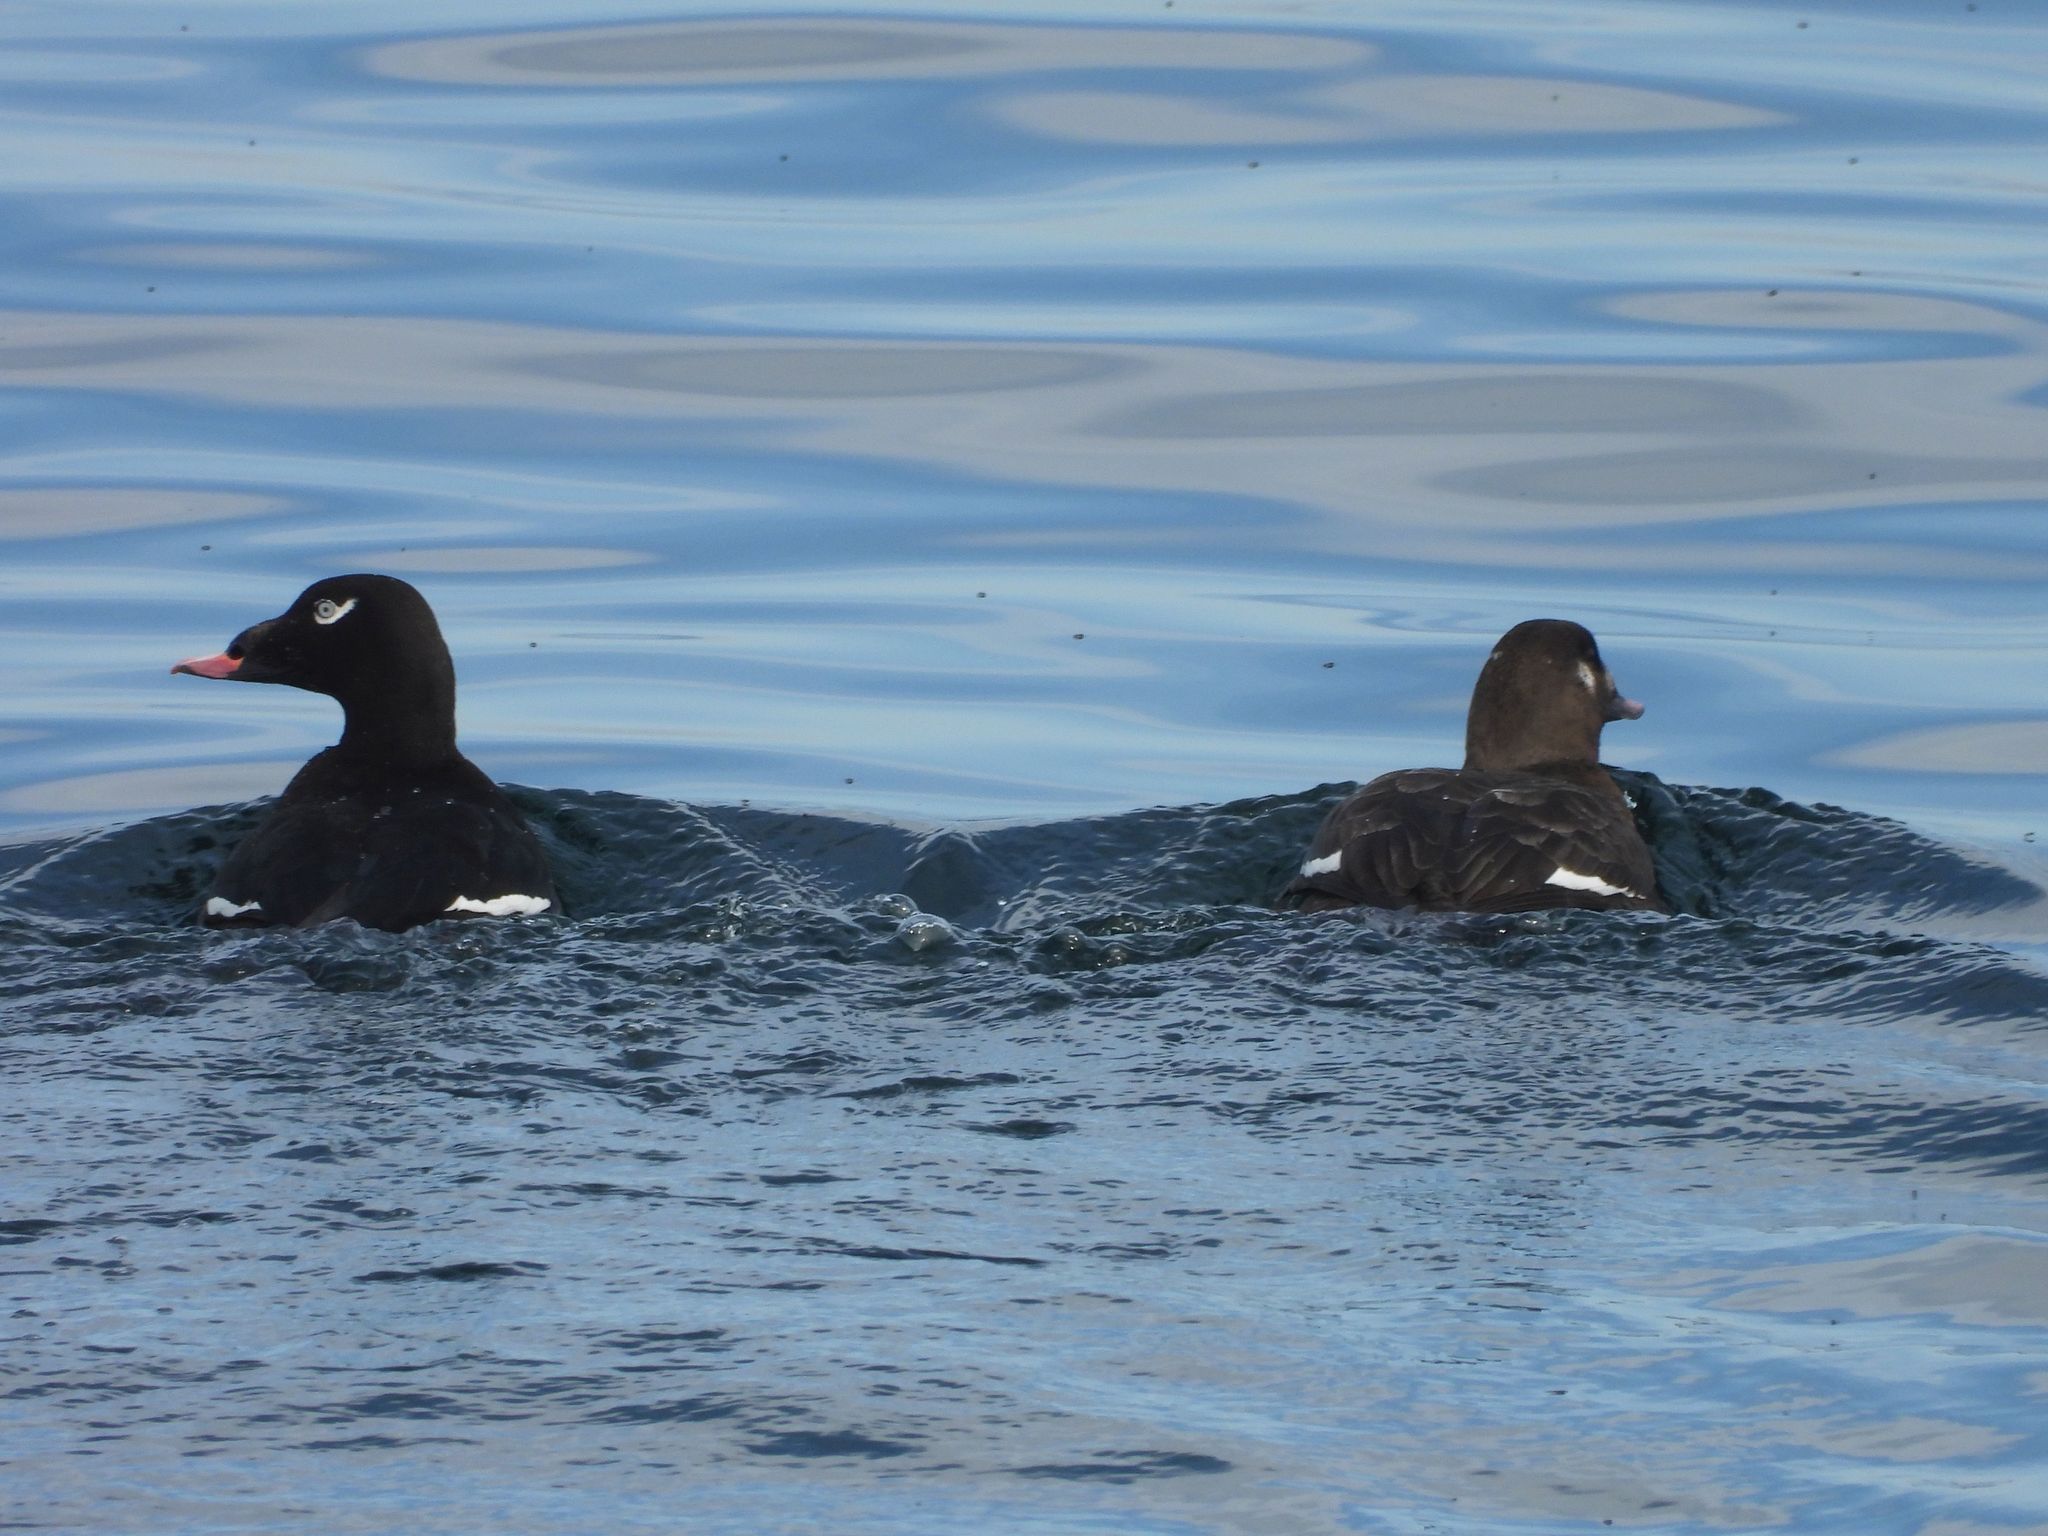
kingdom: Animalia
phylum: Chordata
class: Aves
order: Anseriformes
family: Anatidae
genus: Melanitta
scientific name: Melanitta deglandi
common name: White-winged scoter
